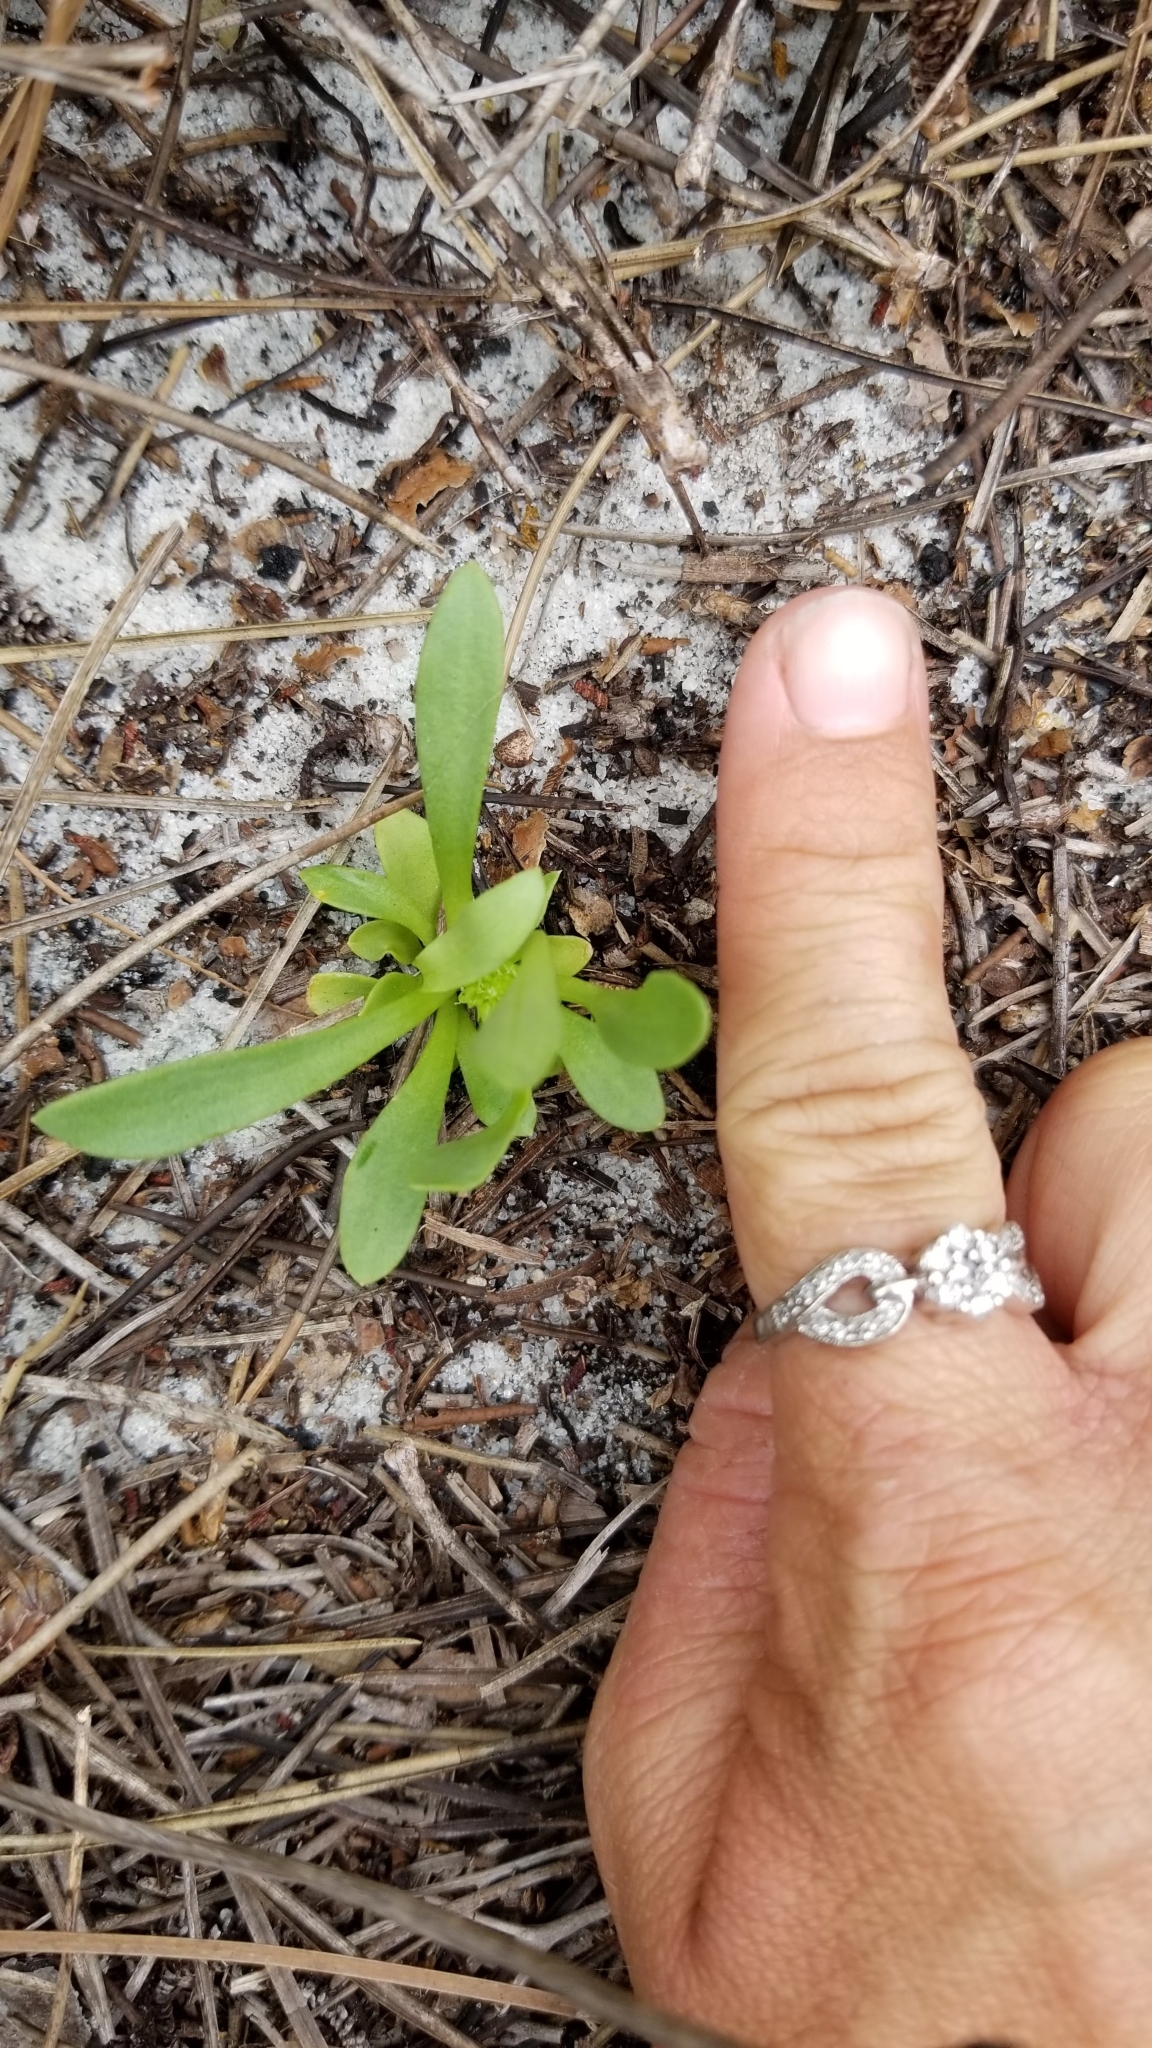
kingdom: Plantae
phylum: Tracheophyta
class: Magnoliopsida
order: Fabales
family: Polygalaceae
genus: Polygala
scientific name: Polygala smallii
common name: Tiny polygala
